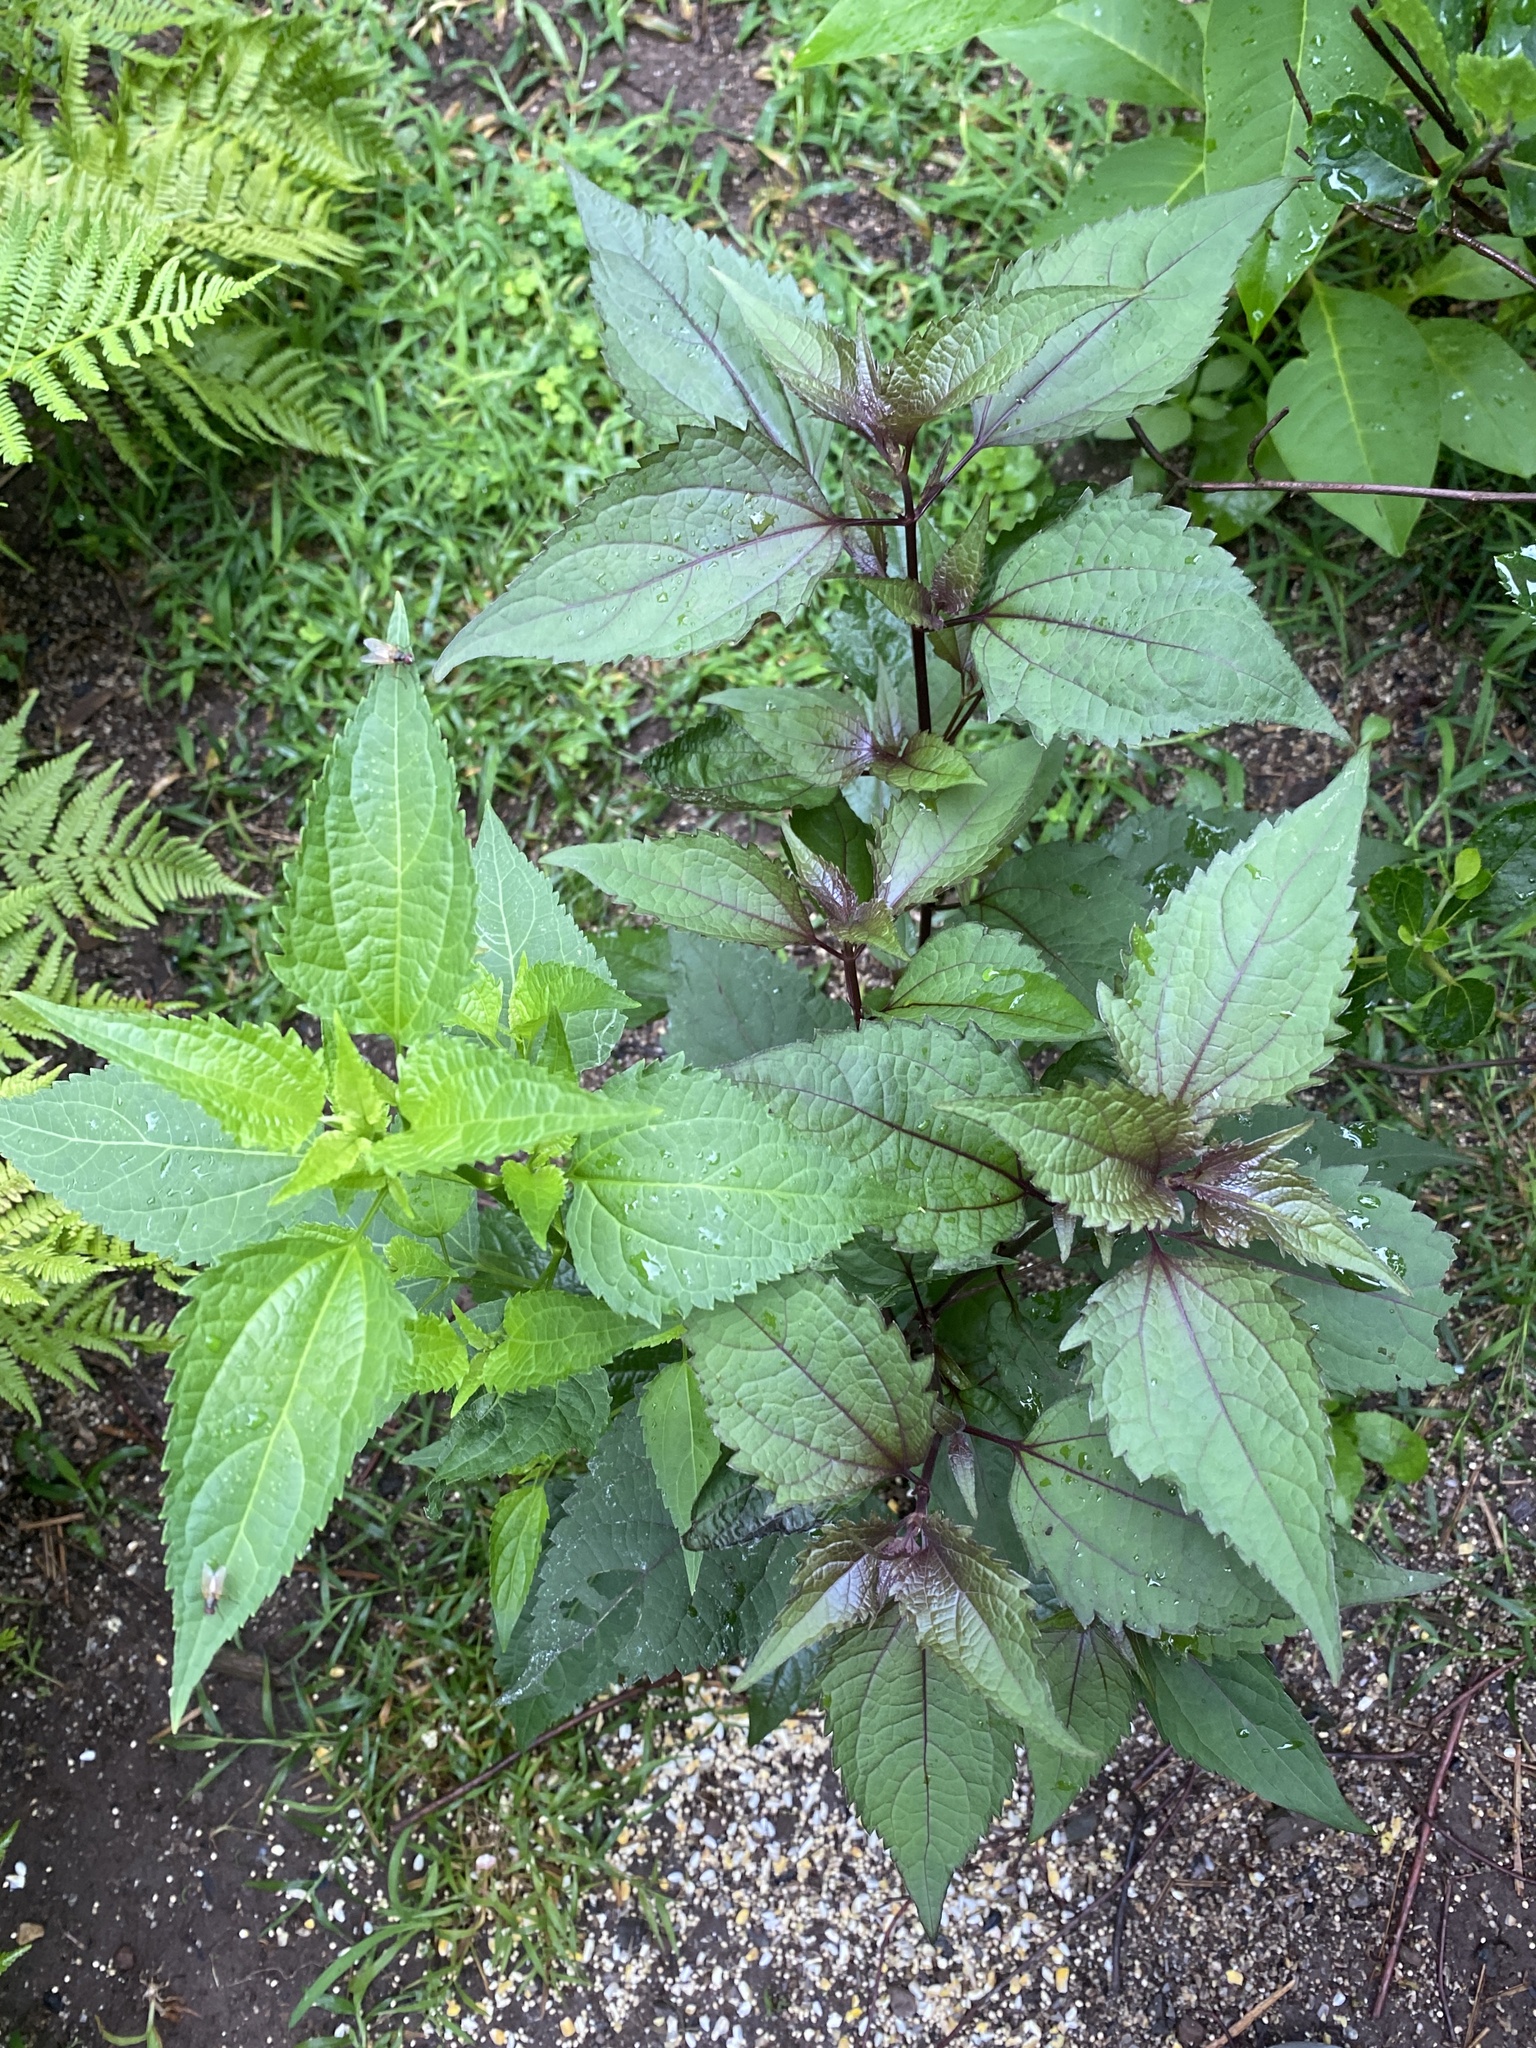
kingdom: Plantae
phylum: Tracheophyta
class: Magnoliopsida
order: Asterales
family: Asteraceae
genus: Ageratina
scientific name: Ageratina altissima
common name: White snakeroot
